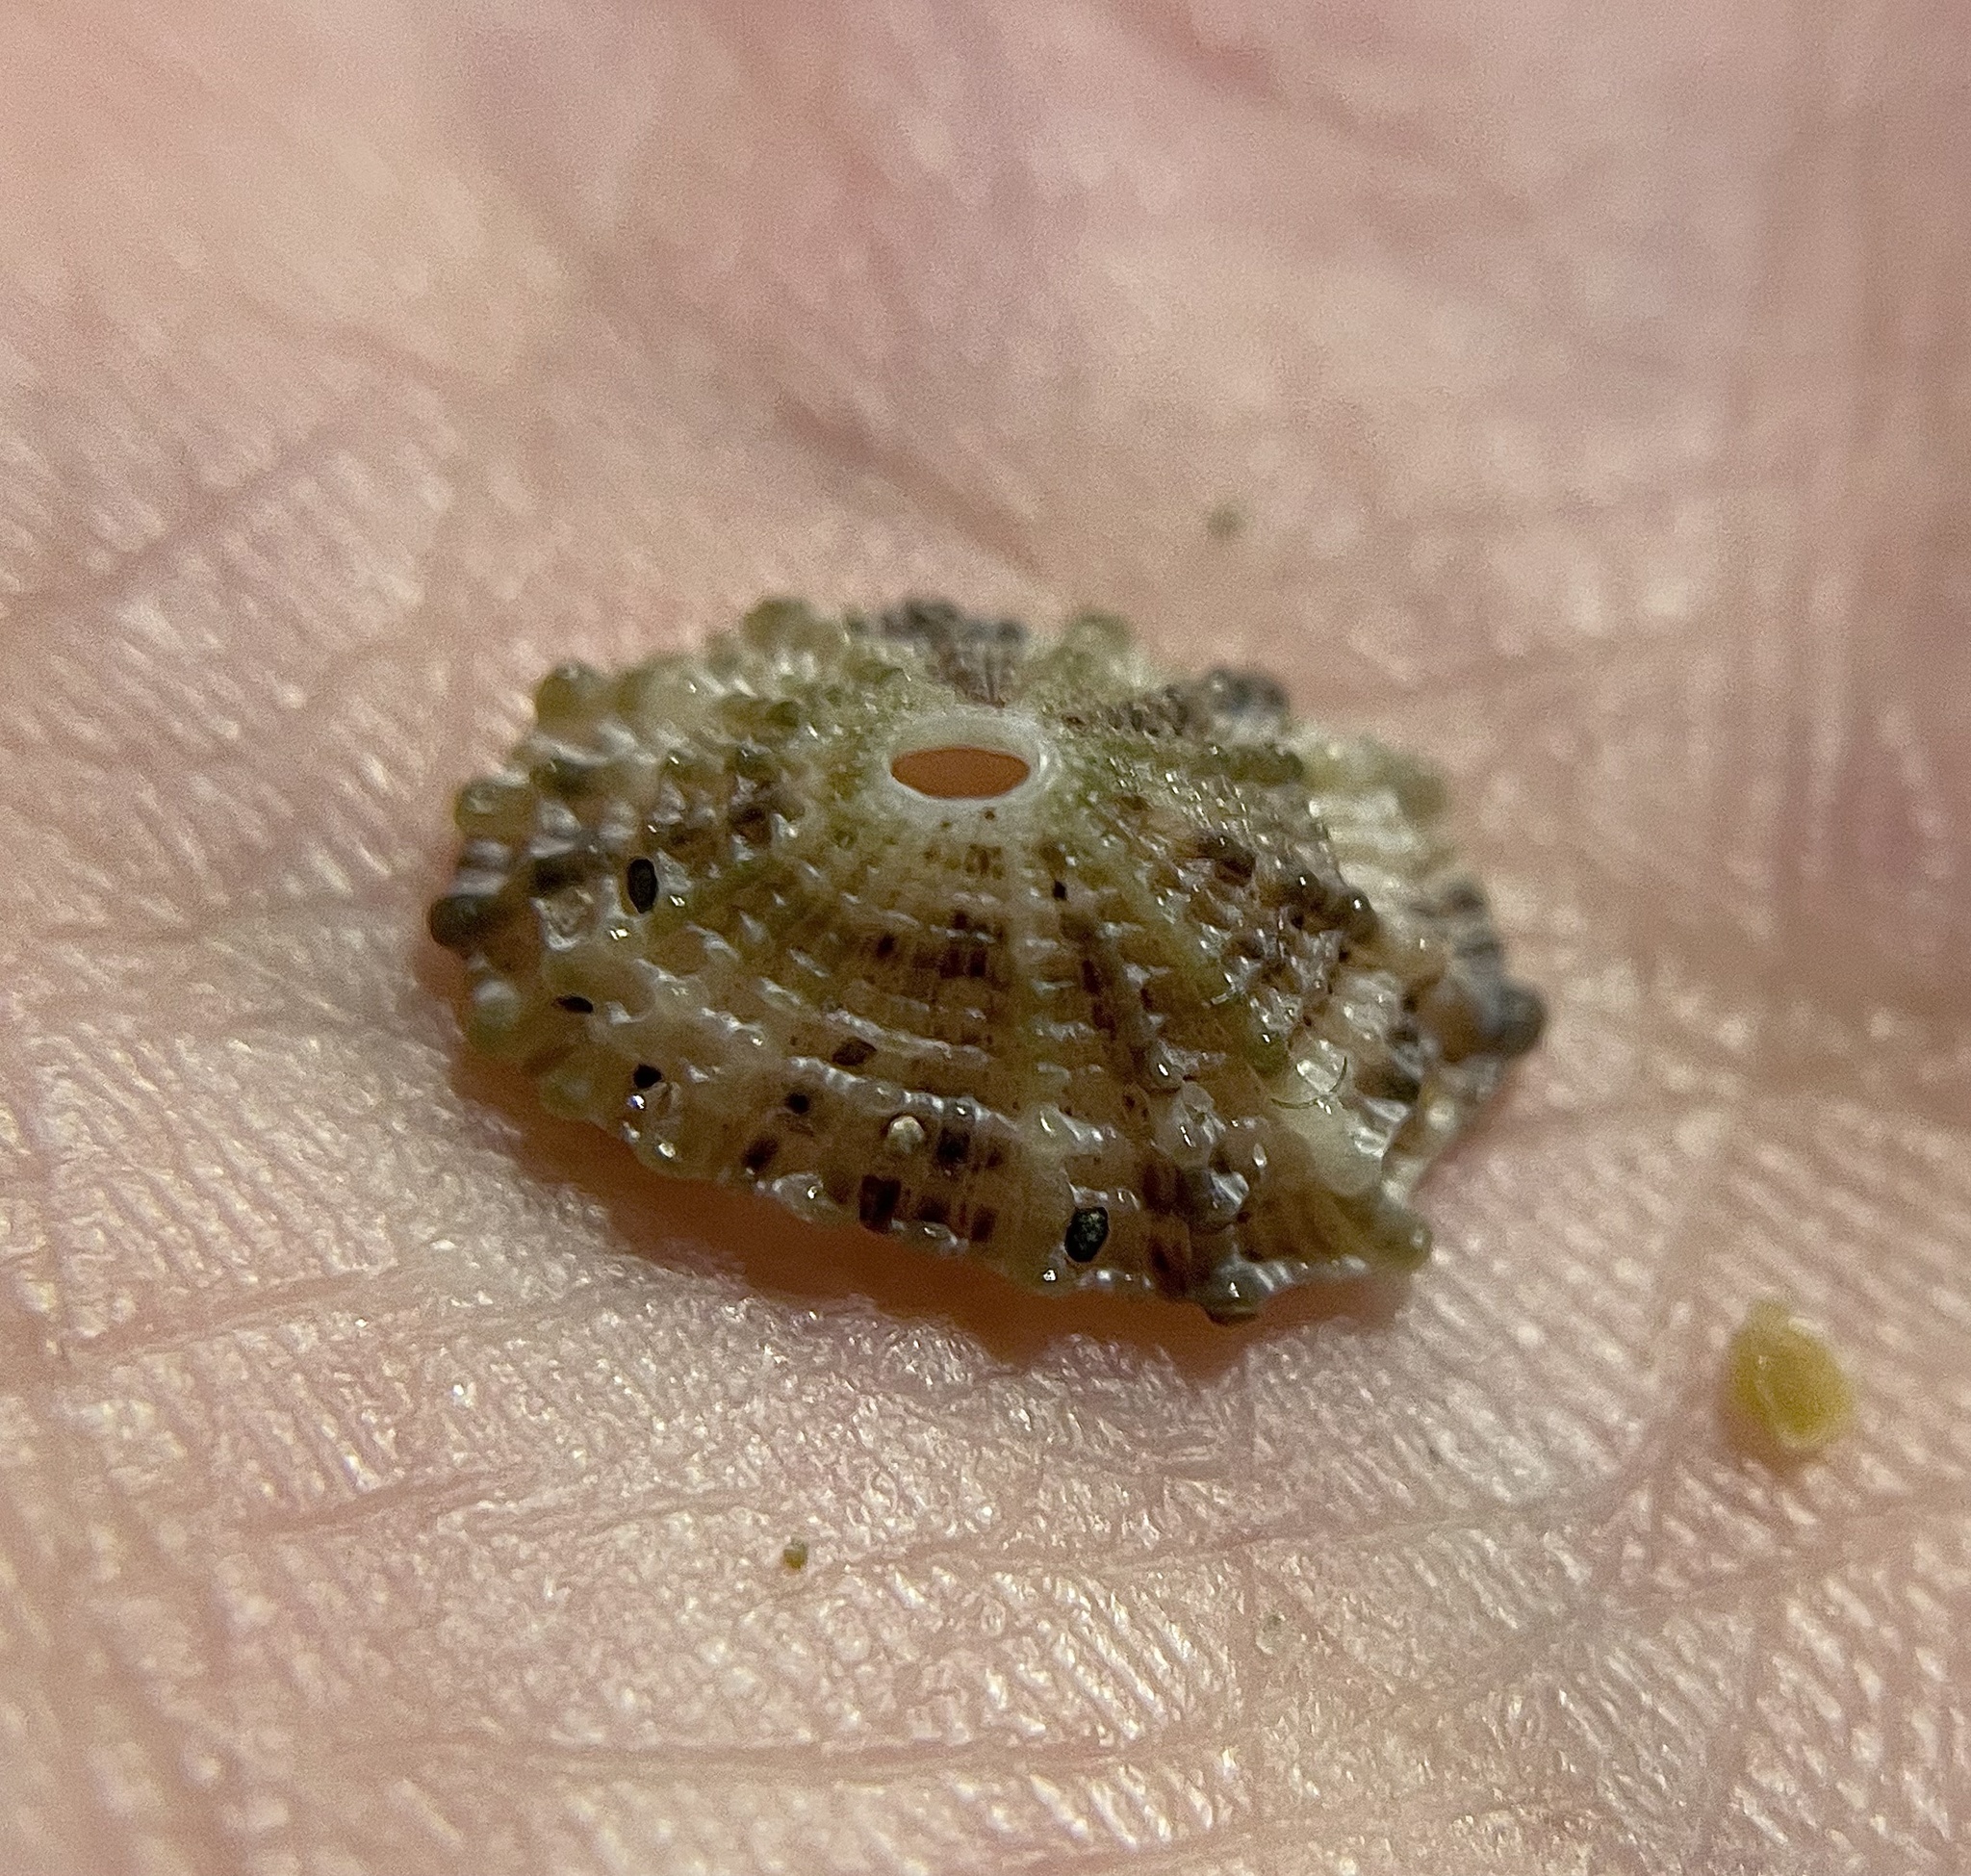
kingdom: Animalia
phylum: Mollusca
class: Gastropoda
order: Lepetellida
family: Fissurellidae
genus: Diodora
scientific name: Diodora graeca
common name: Common keyhole limpet
